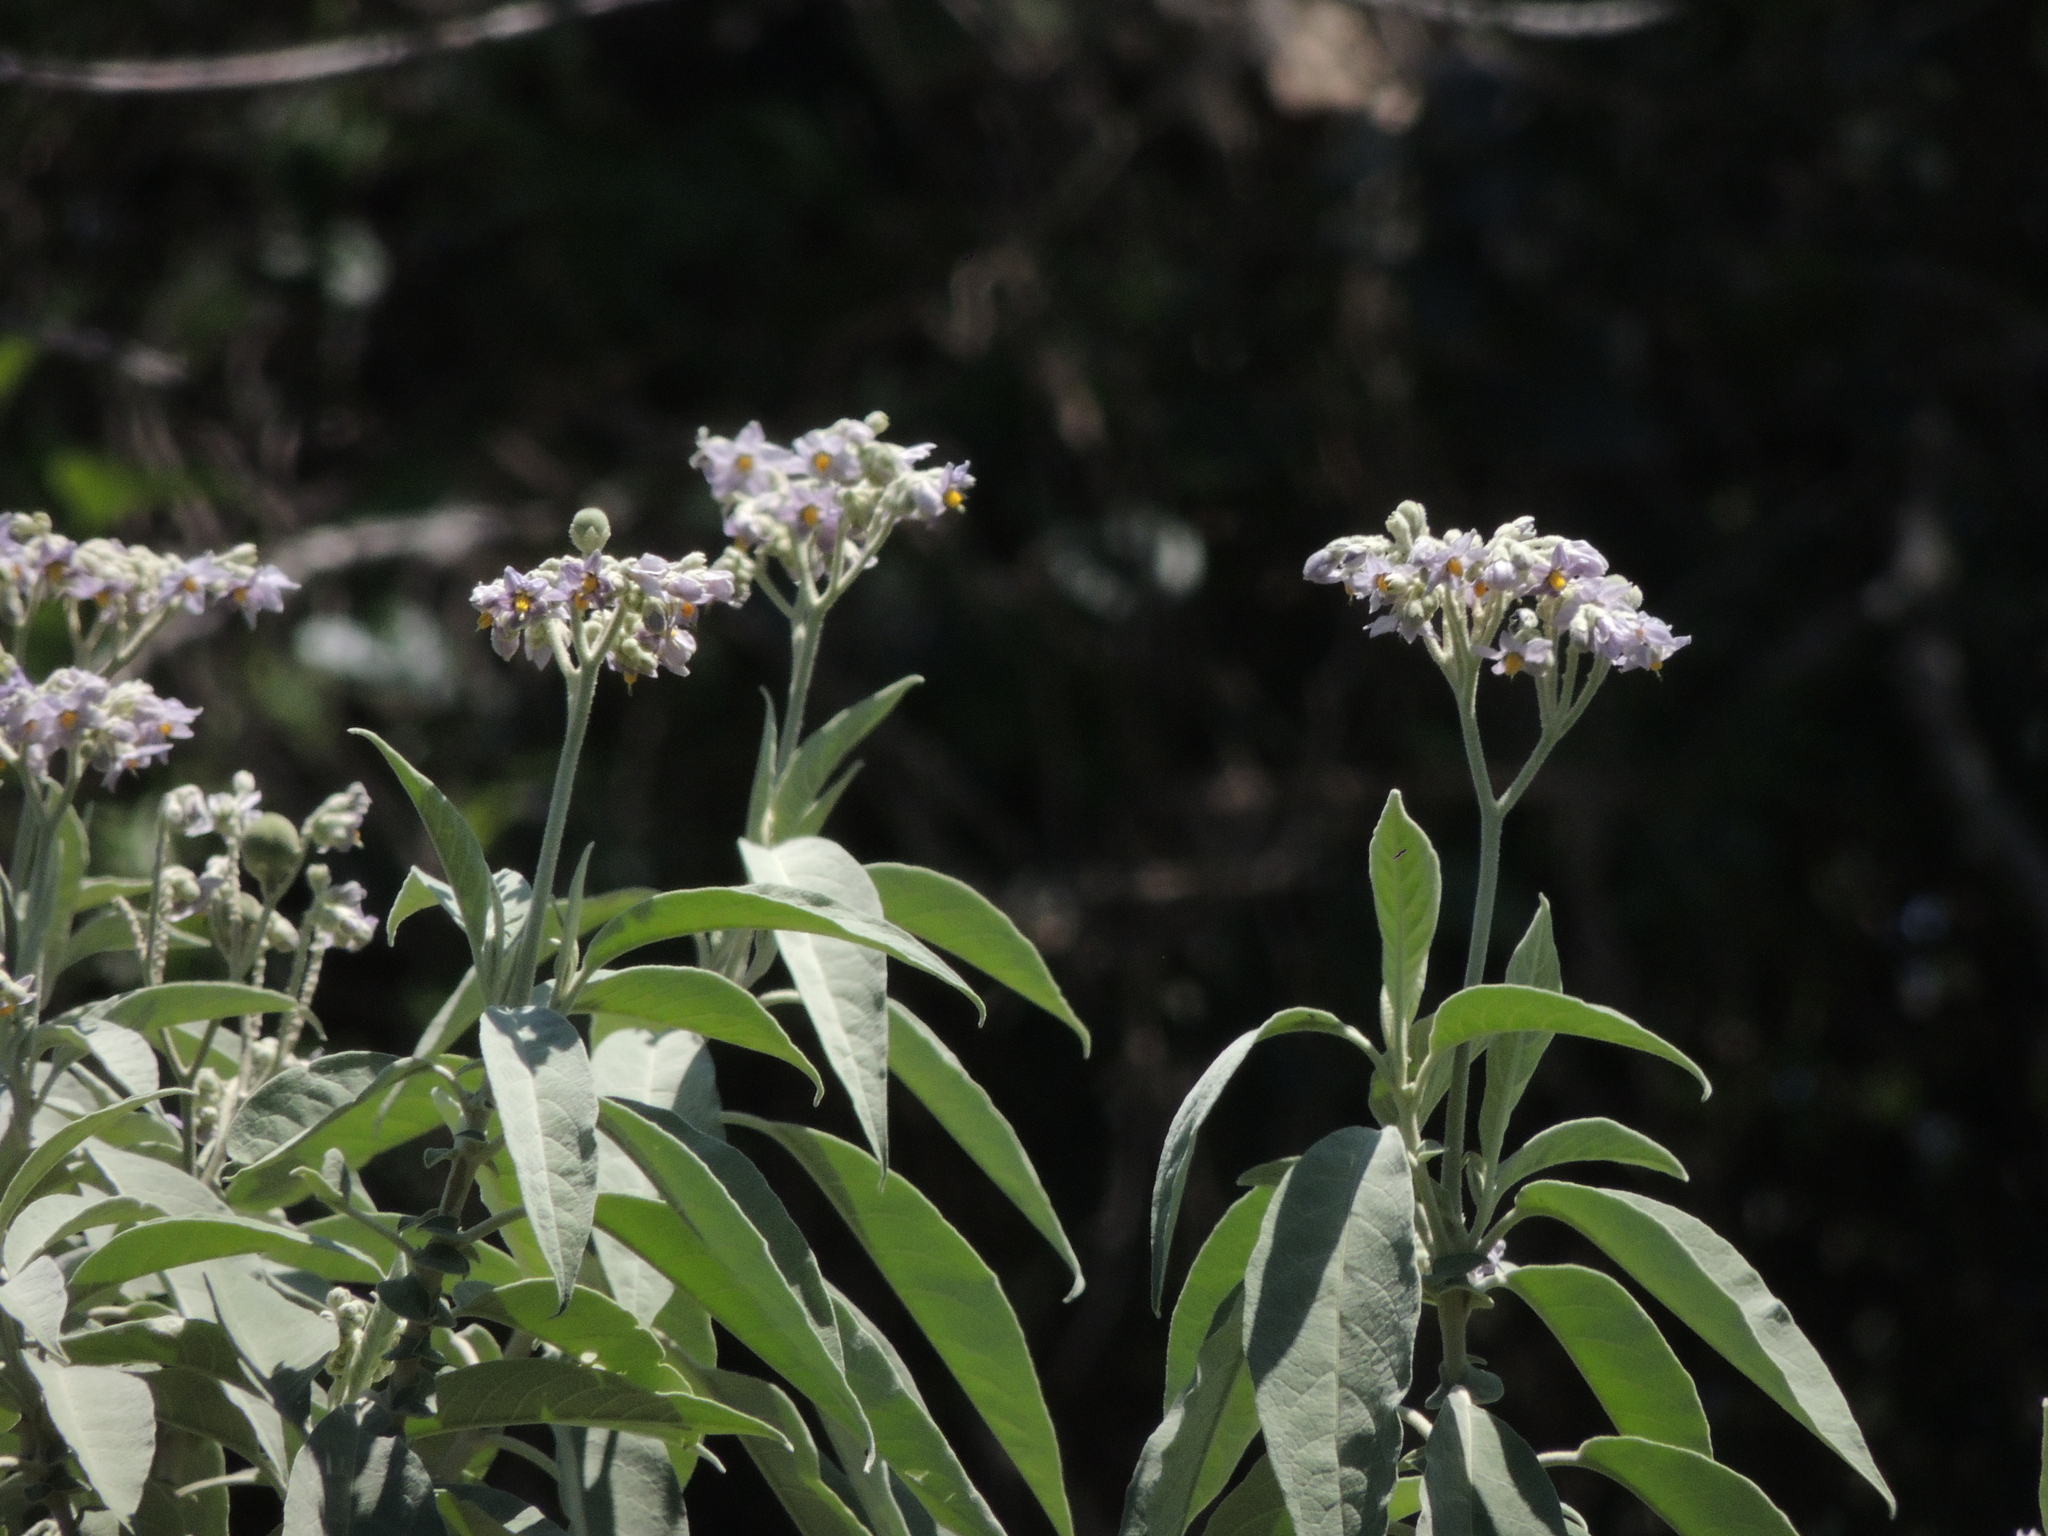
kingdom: Plantae
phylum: Tracheophyta
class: Magnoliopsida
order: Solanales
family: Solanaceae
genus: Solanum
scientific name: Solanum granulosoleprosum
